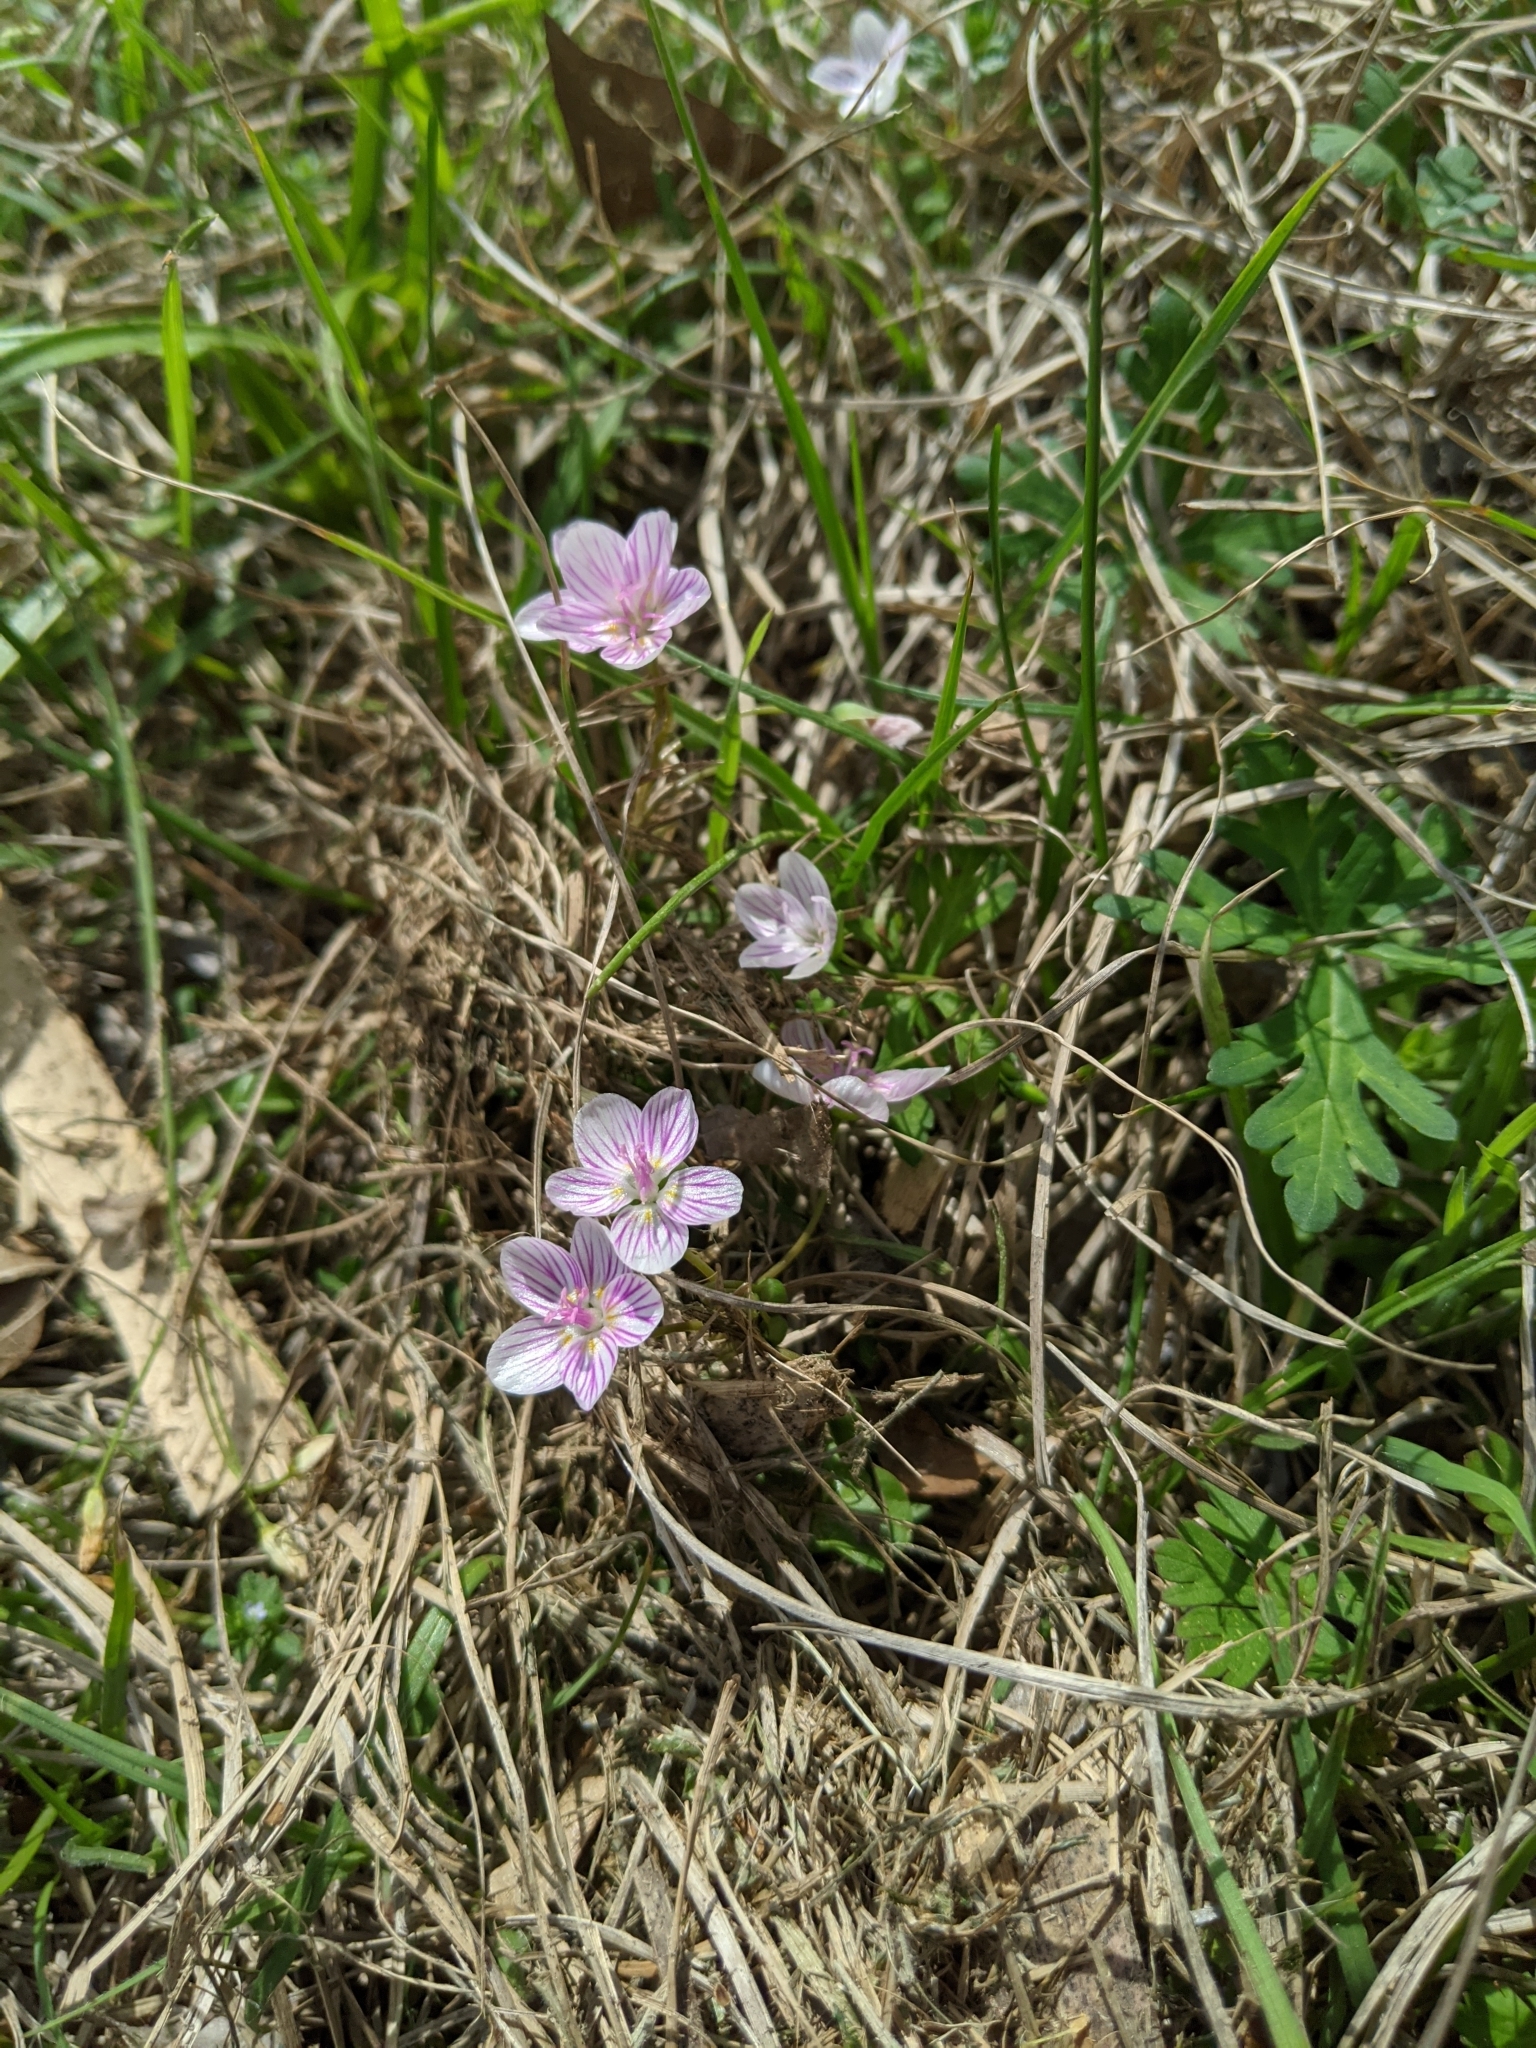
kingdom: Plantae
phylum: Tracheophyta
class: Magnoliopsida
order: Caryophyllales
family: Montiaceae
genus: Claytonia
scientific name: Claytonia virginica
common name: Virginia springbeauty
